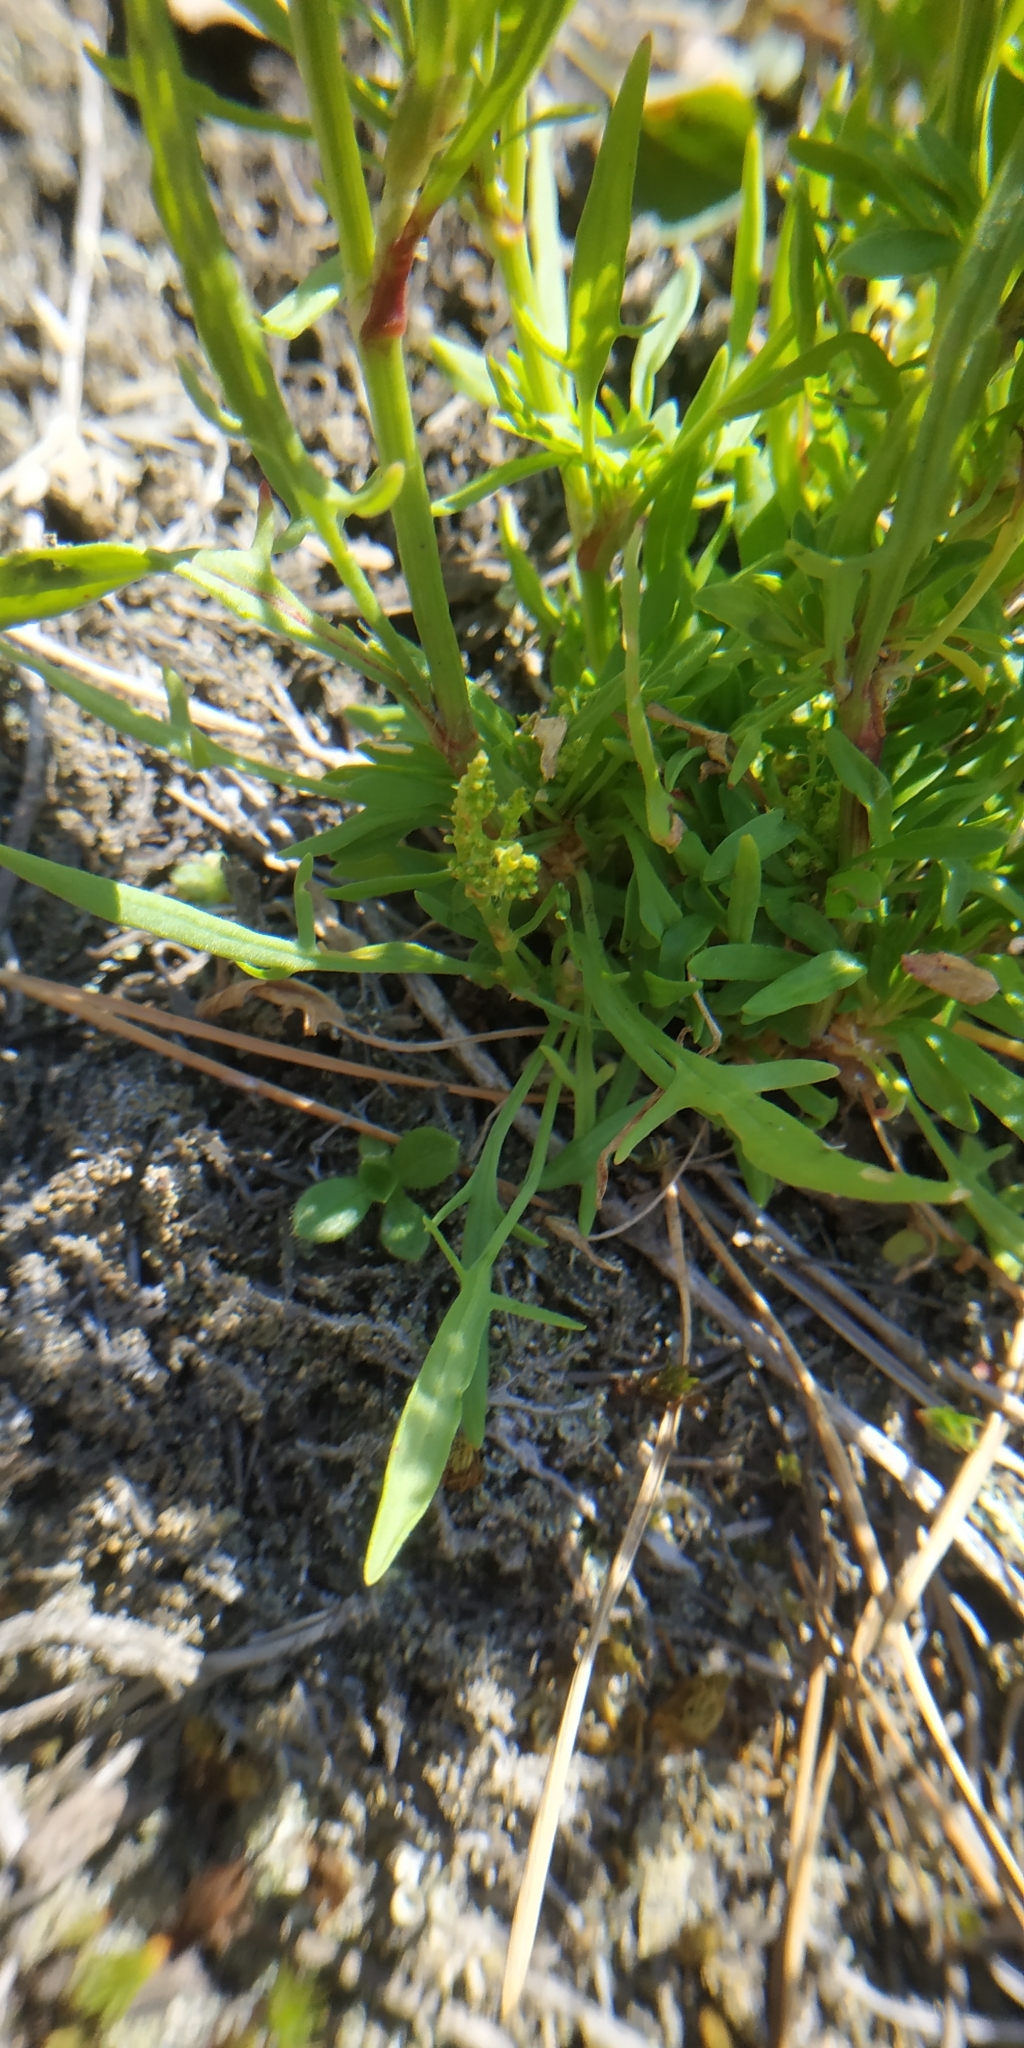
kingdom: Plantae
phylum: Tracheophyta
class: Magnoliopsida
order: Caryophyllales
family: Polygonaceae
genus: Rumex
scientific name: Rumex acetosella
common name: Common sheep sorrel
